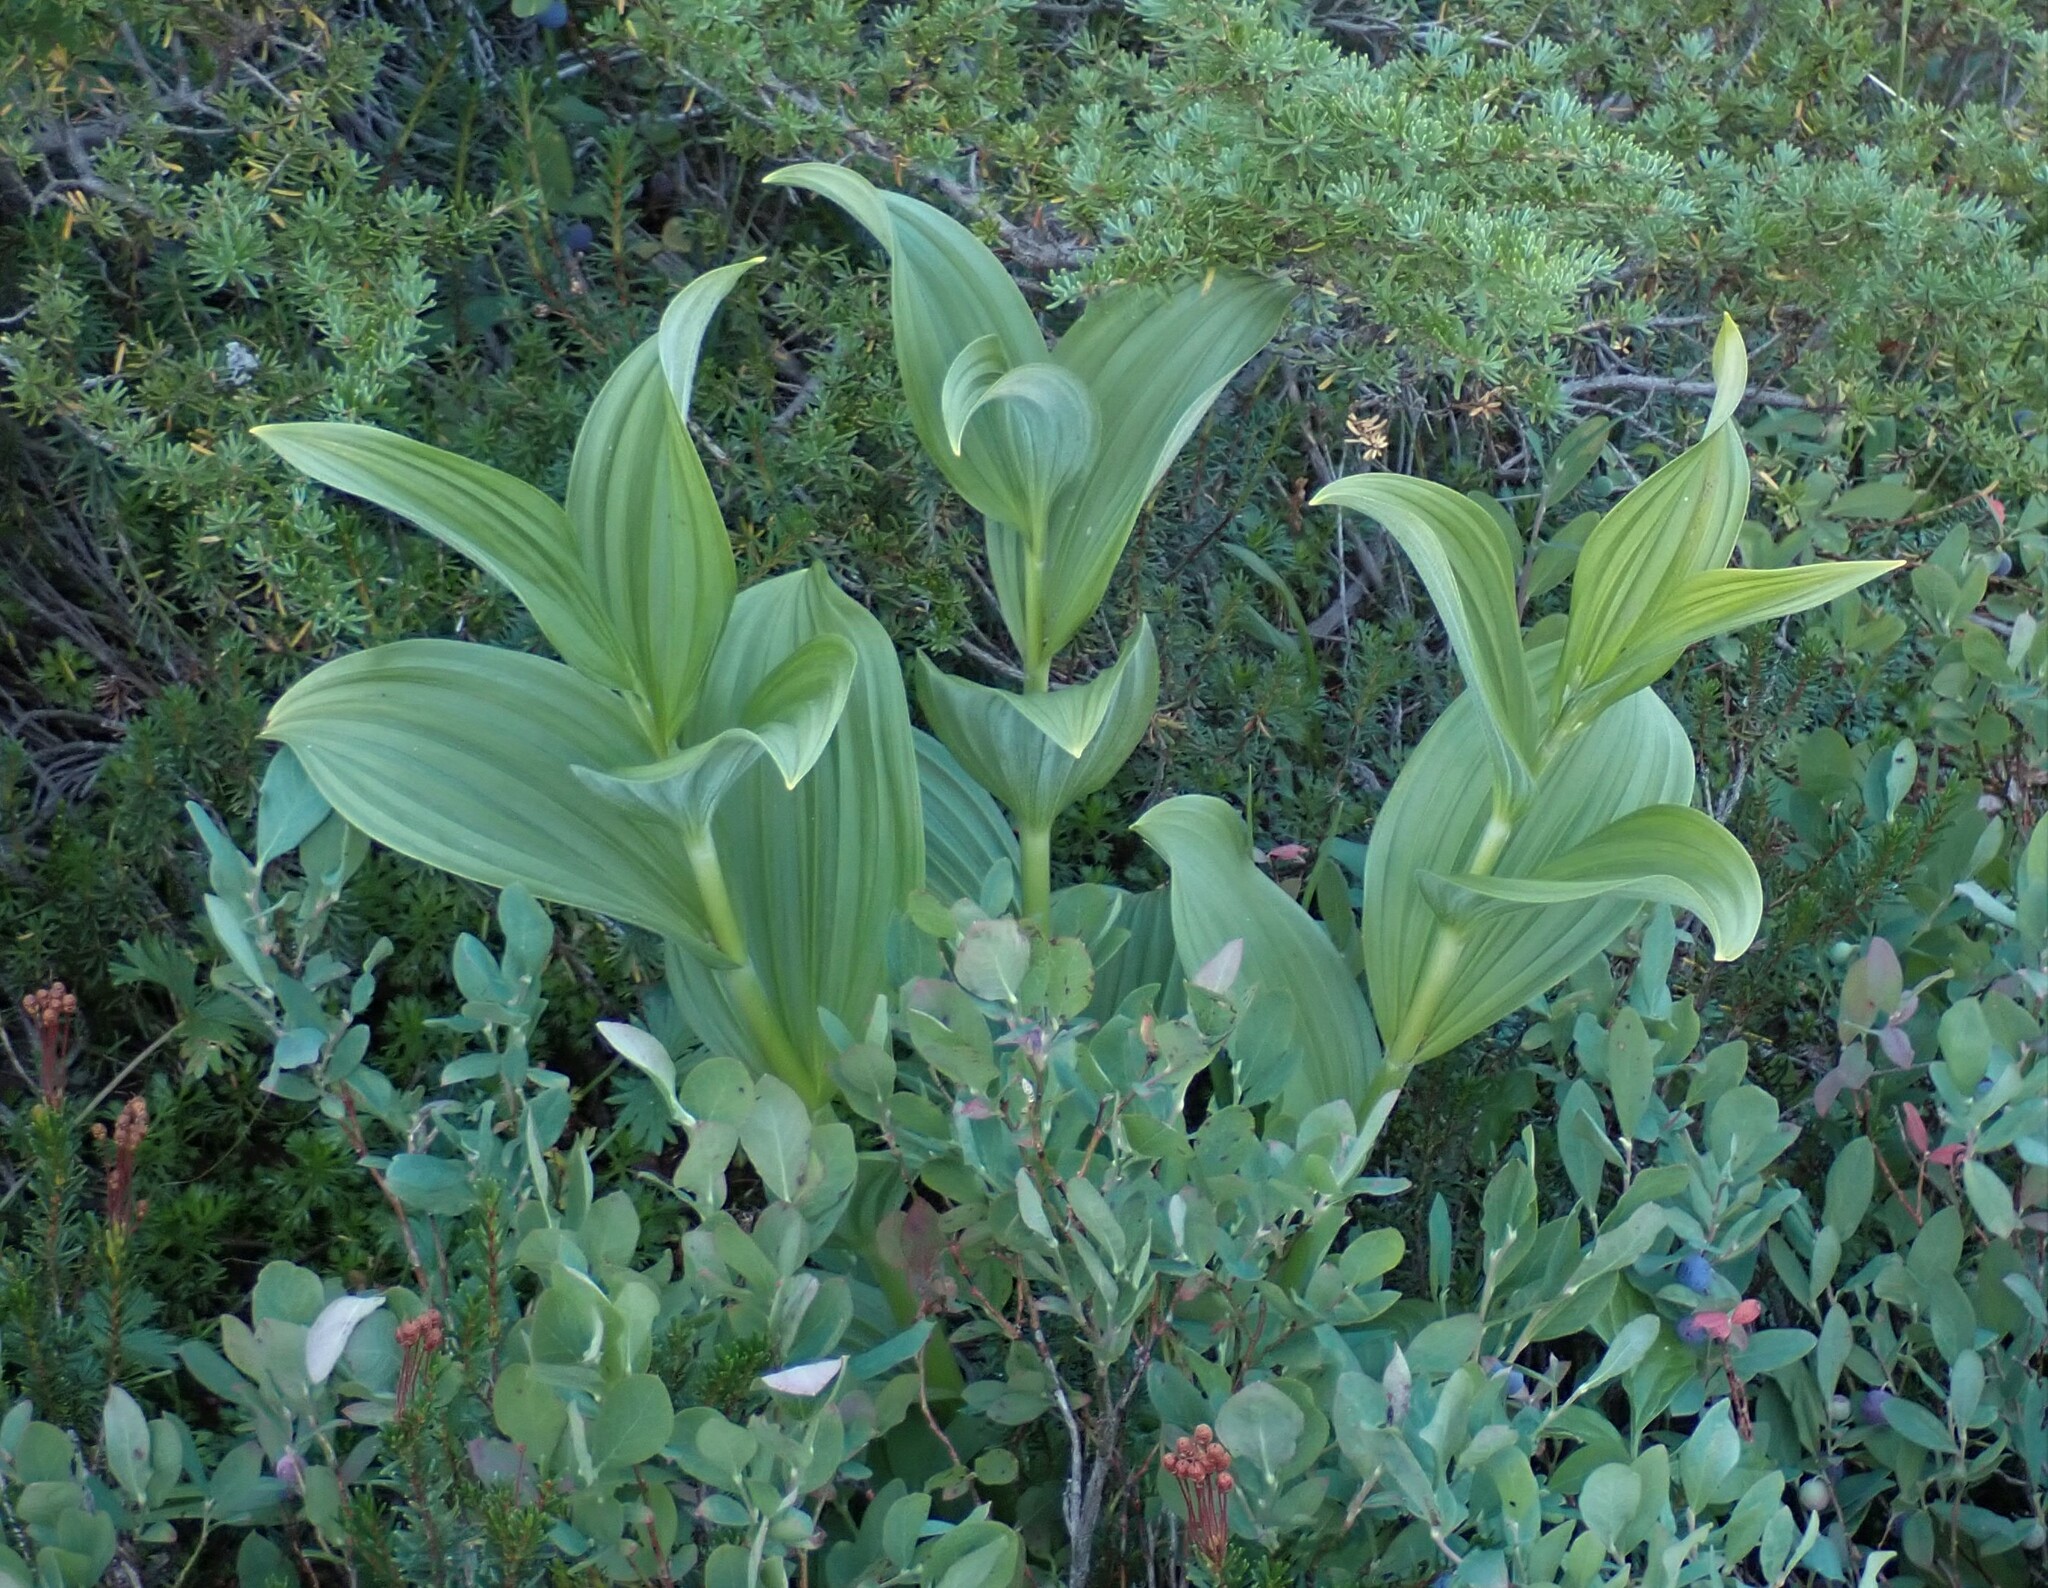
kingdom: Plantae
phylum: Tracheophyta
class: Liliopsida
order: Liliales
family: Melanthiaceae
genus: Veratrum
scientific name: Veratrum viride
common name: American false hellebore
